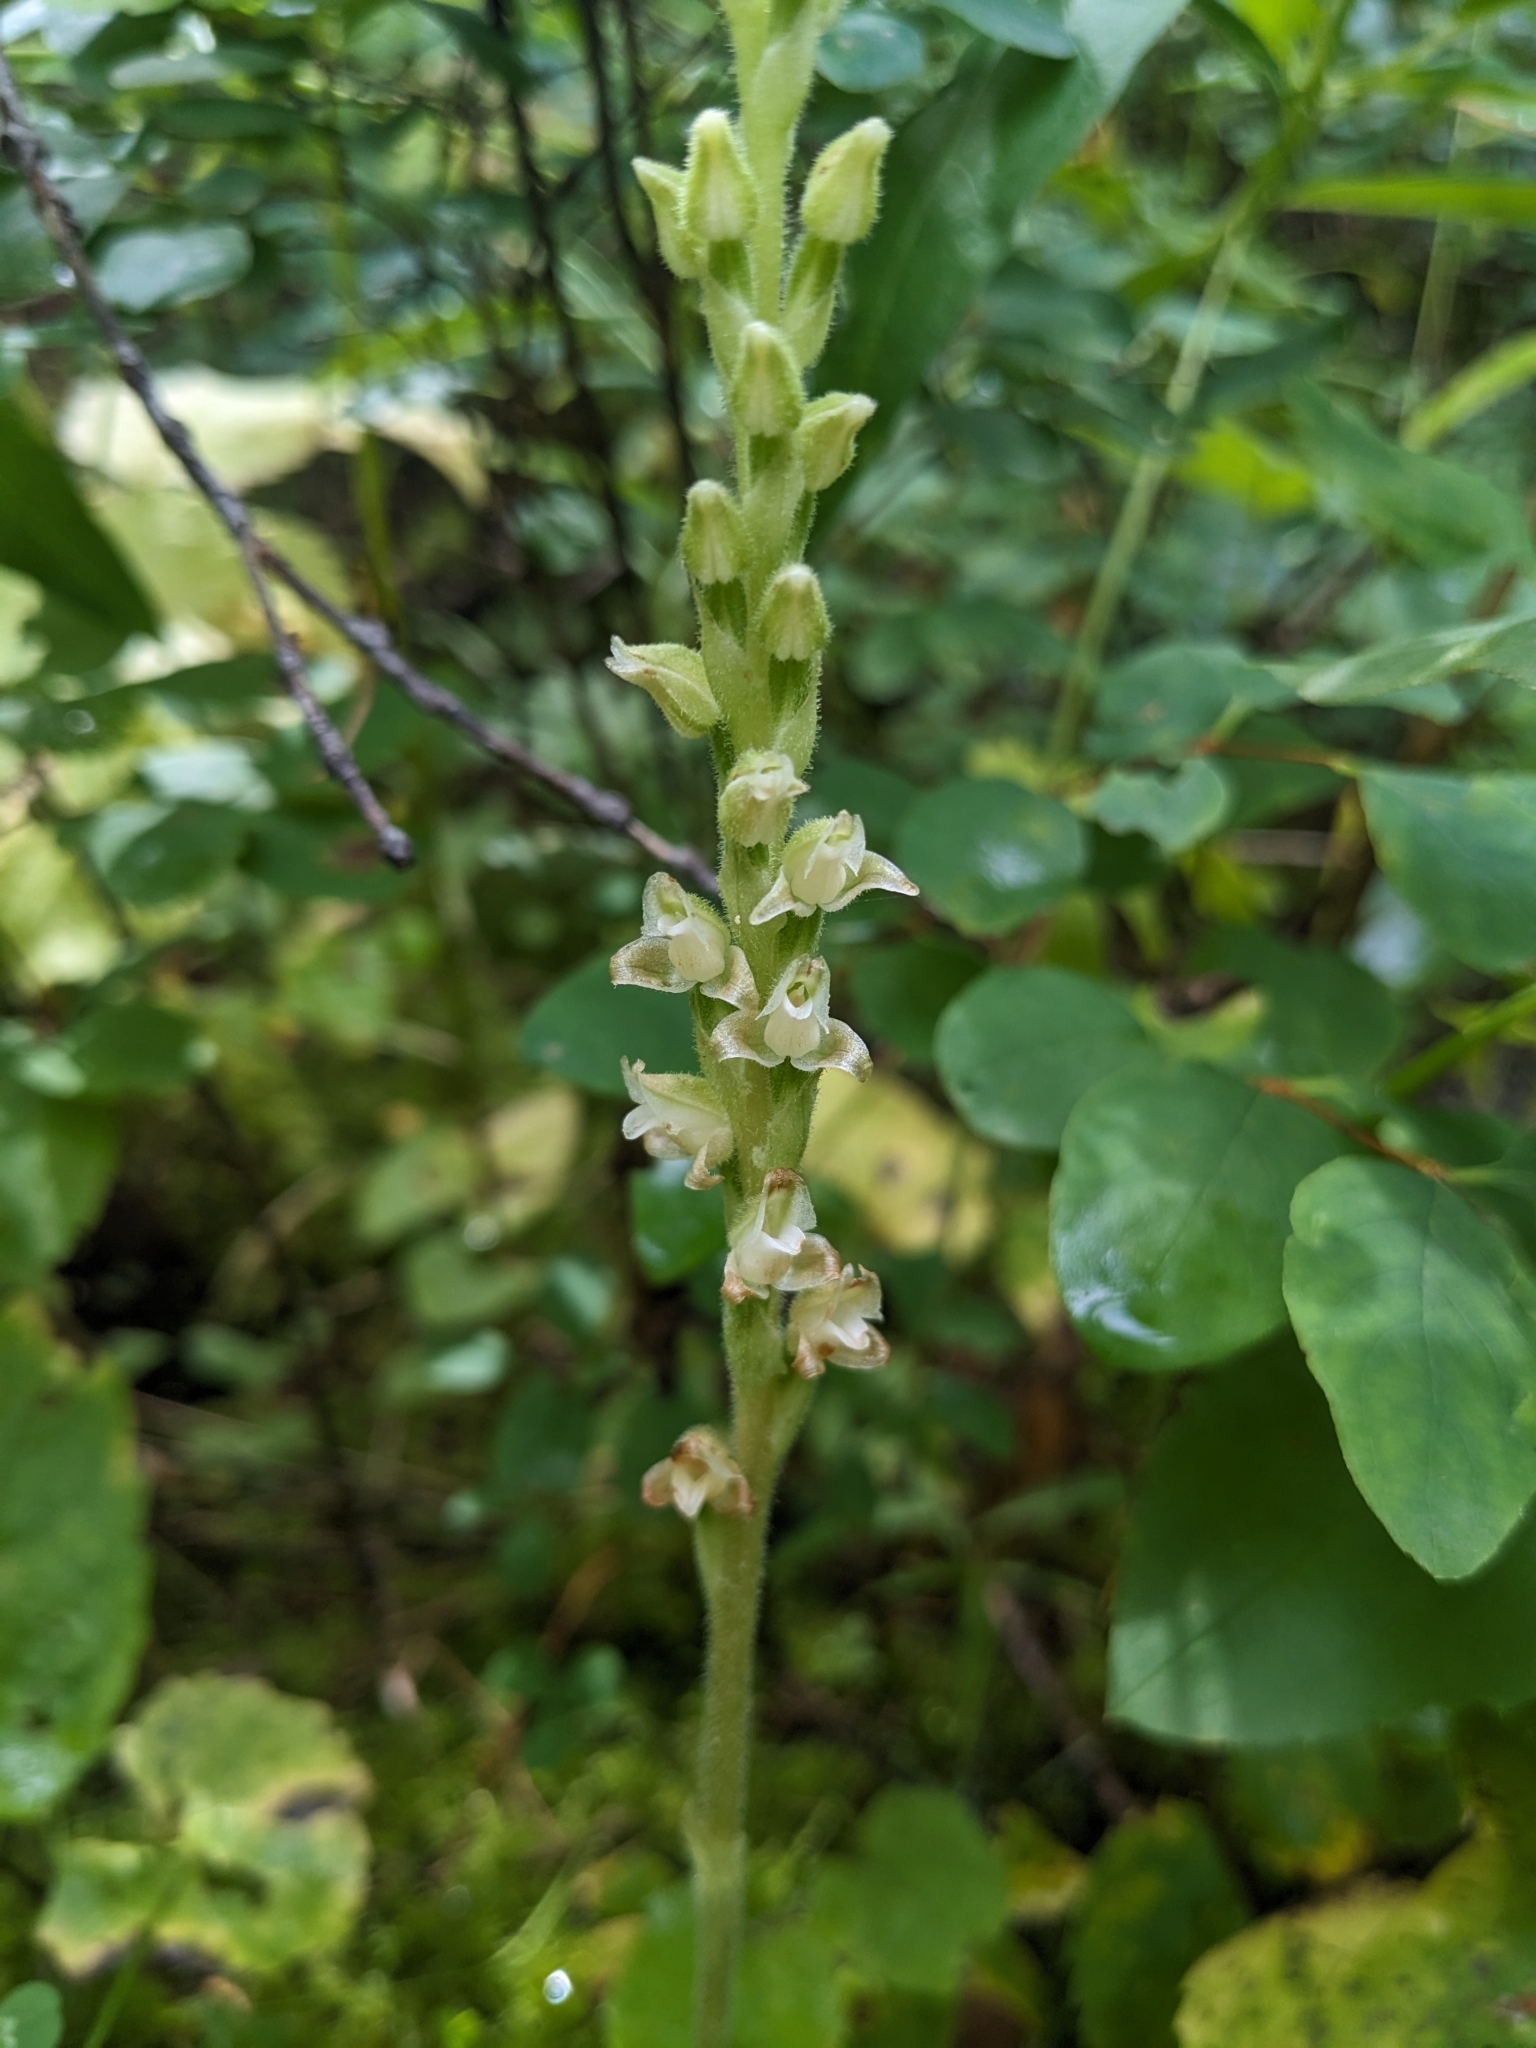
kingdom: Plantae
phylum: Tracheophyta
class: Liliopsida
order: Asparagales
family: Orchidaceae
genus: Goodyera
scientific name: Goodyera oblongifolia
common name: Giant rattlesnake-plantain
